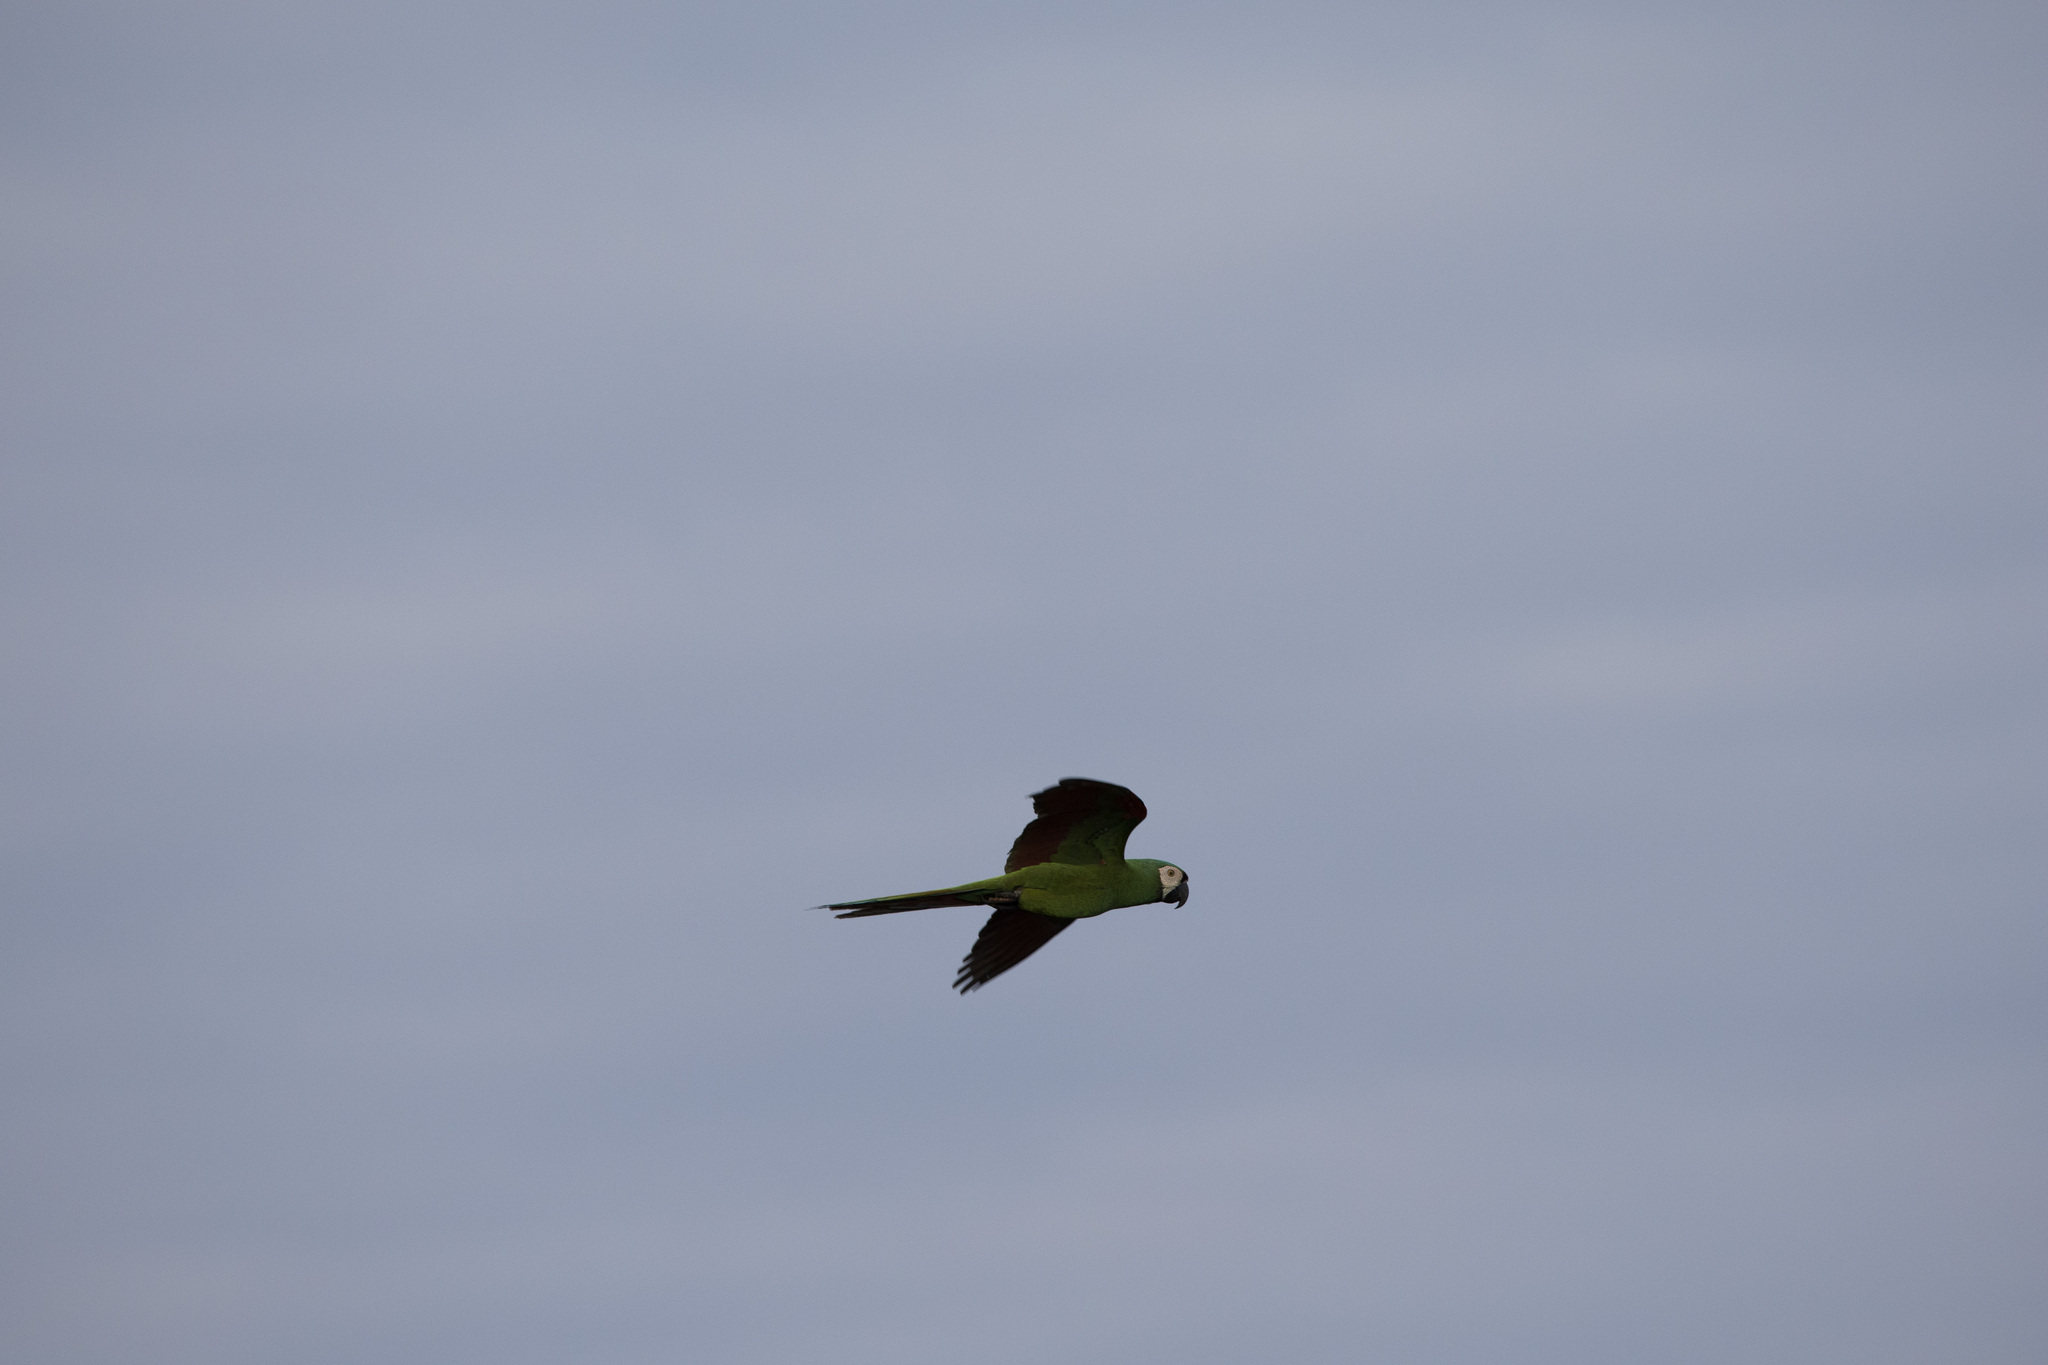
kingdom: Animalia
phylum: Chordata
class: Aves
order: Psittaciformes
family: Psittacidae
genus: Ara
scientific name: Ara severus
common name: Chestnut-fronted macaw
